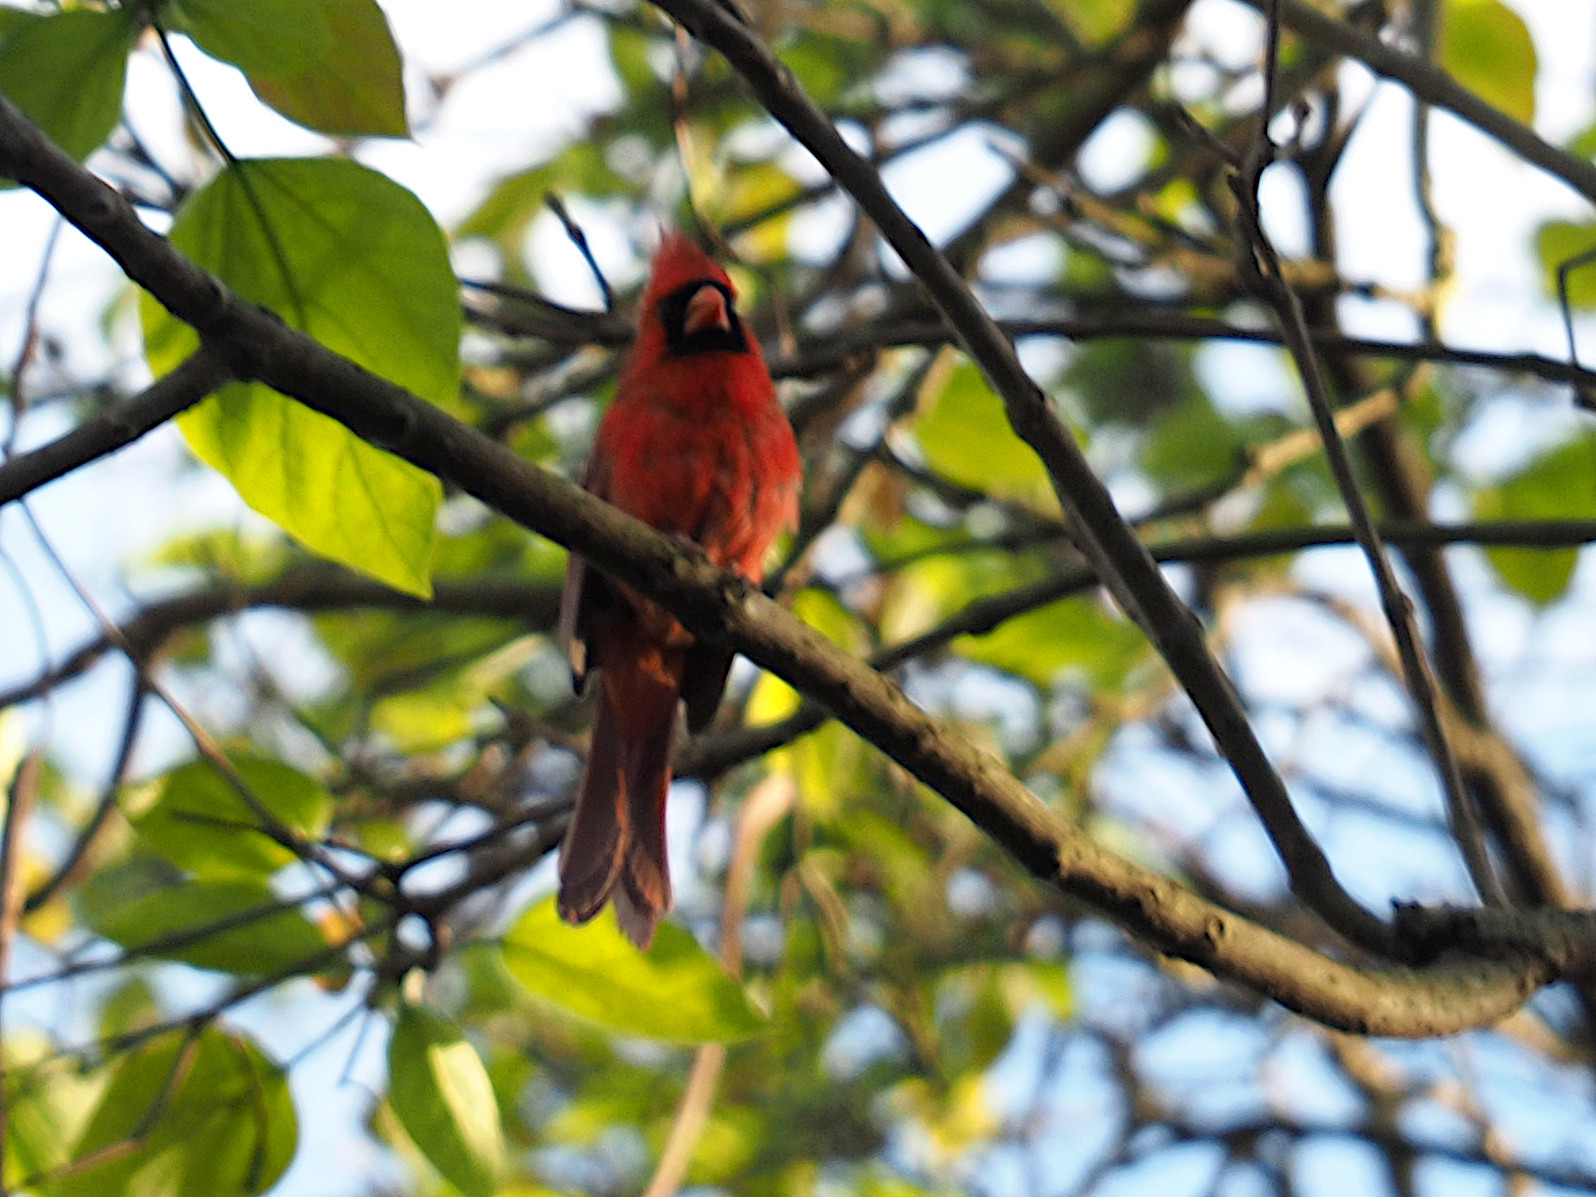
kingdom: Animalia
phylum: Chordata
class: Aves
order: Passeriformes
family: Cardinalidae
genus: Cardinalis
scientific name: Cardinalis cardinalis
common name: Northern cardinal
